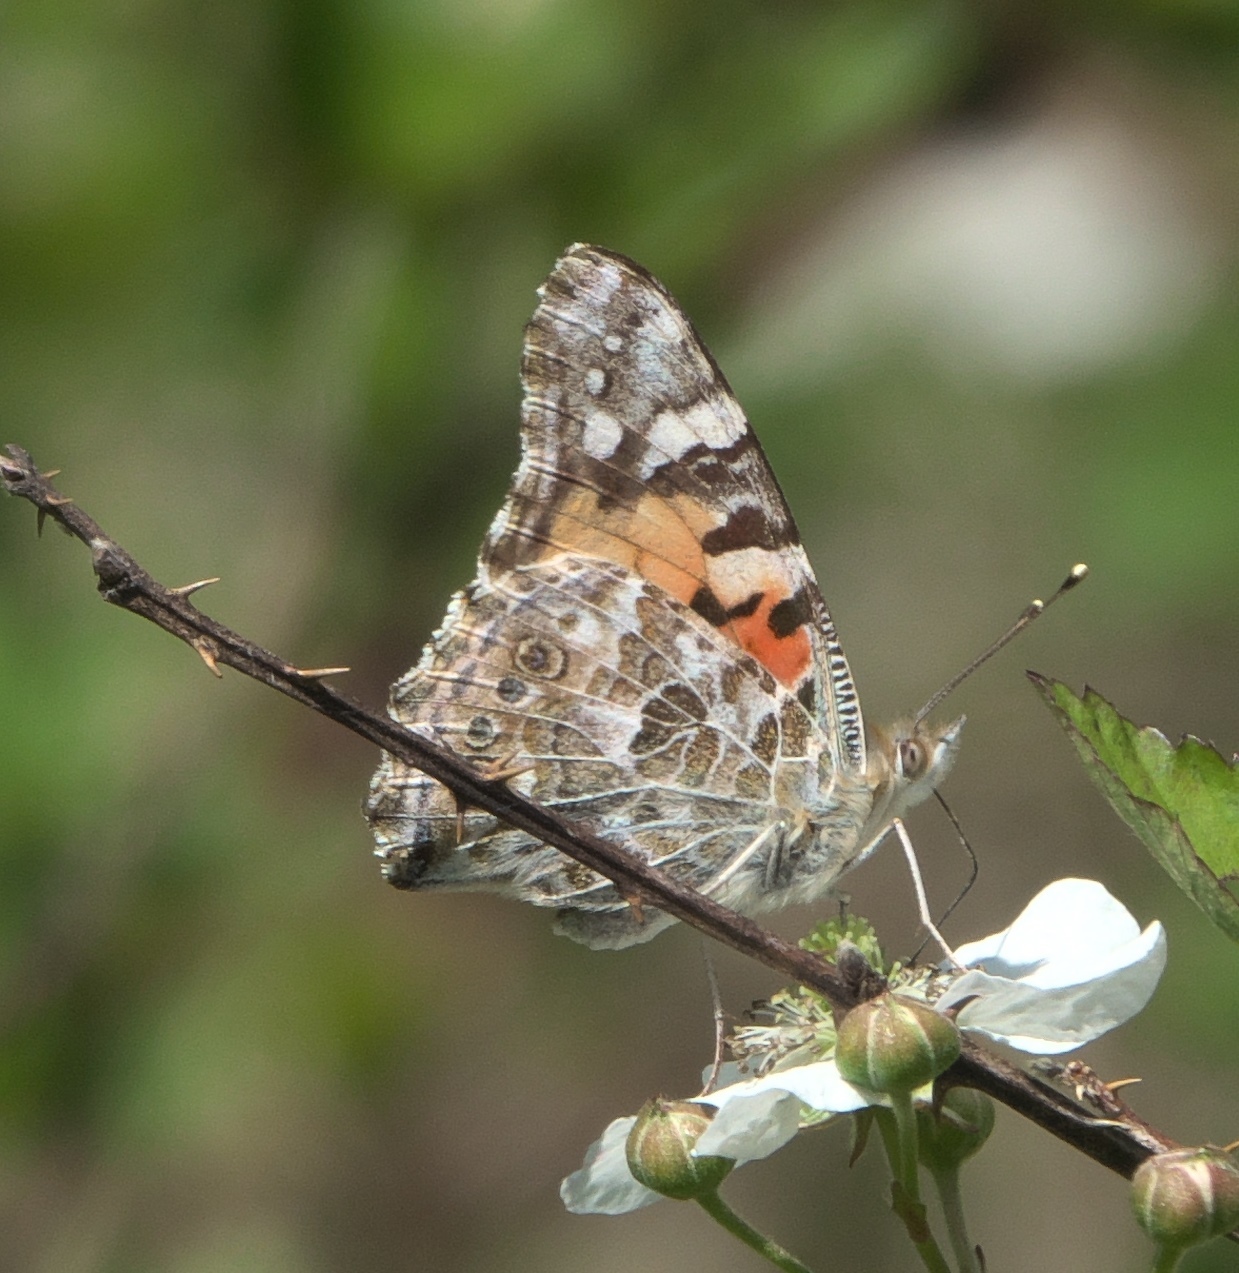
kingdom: Animalia
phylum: Arthropoda
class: Insecta
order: Lepidoptera
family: Nymphalidae
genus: Vanessa
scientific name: Vanessa cardui
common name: Painted lady
